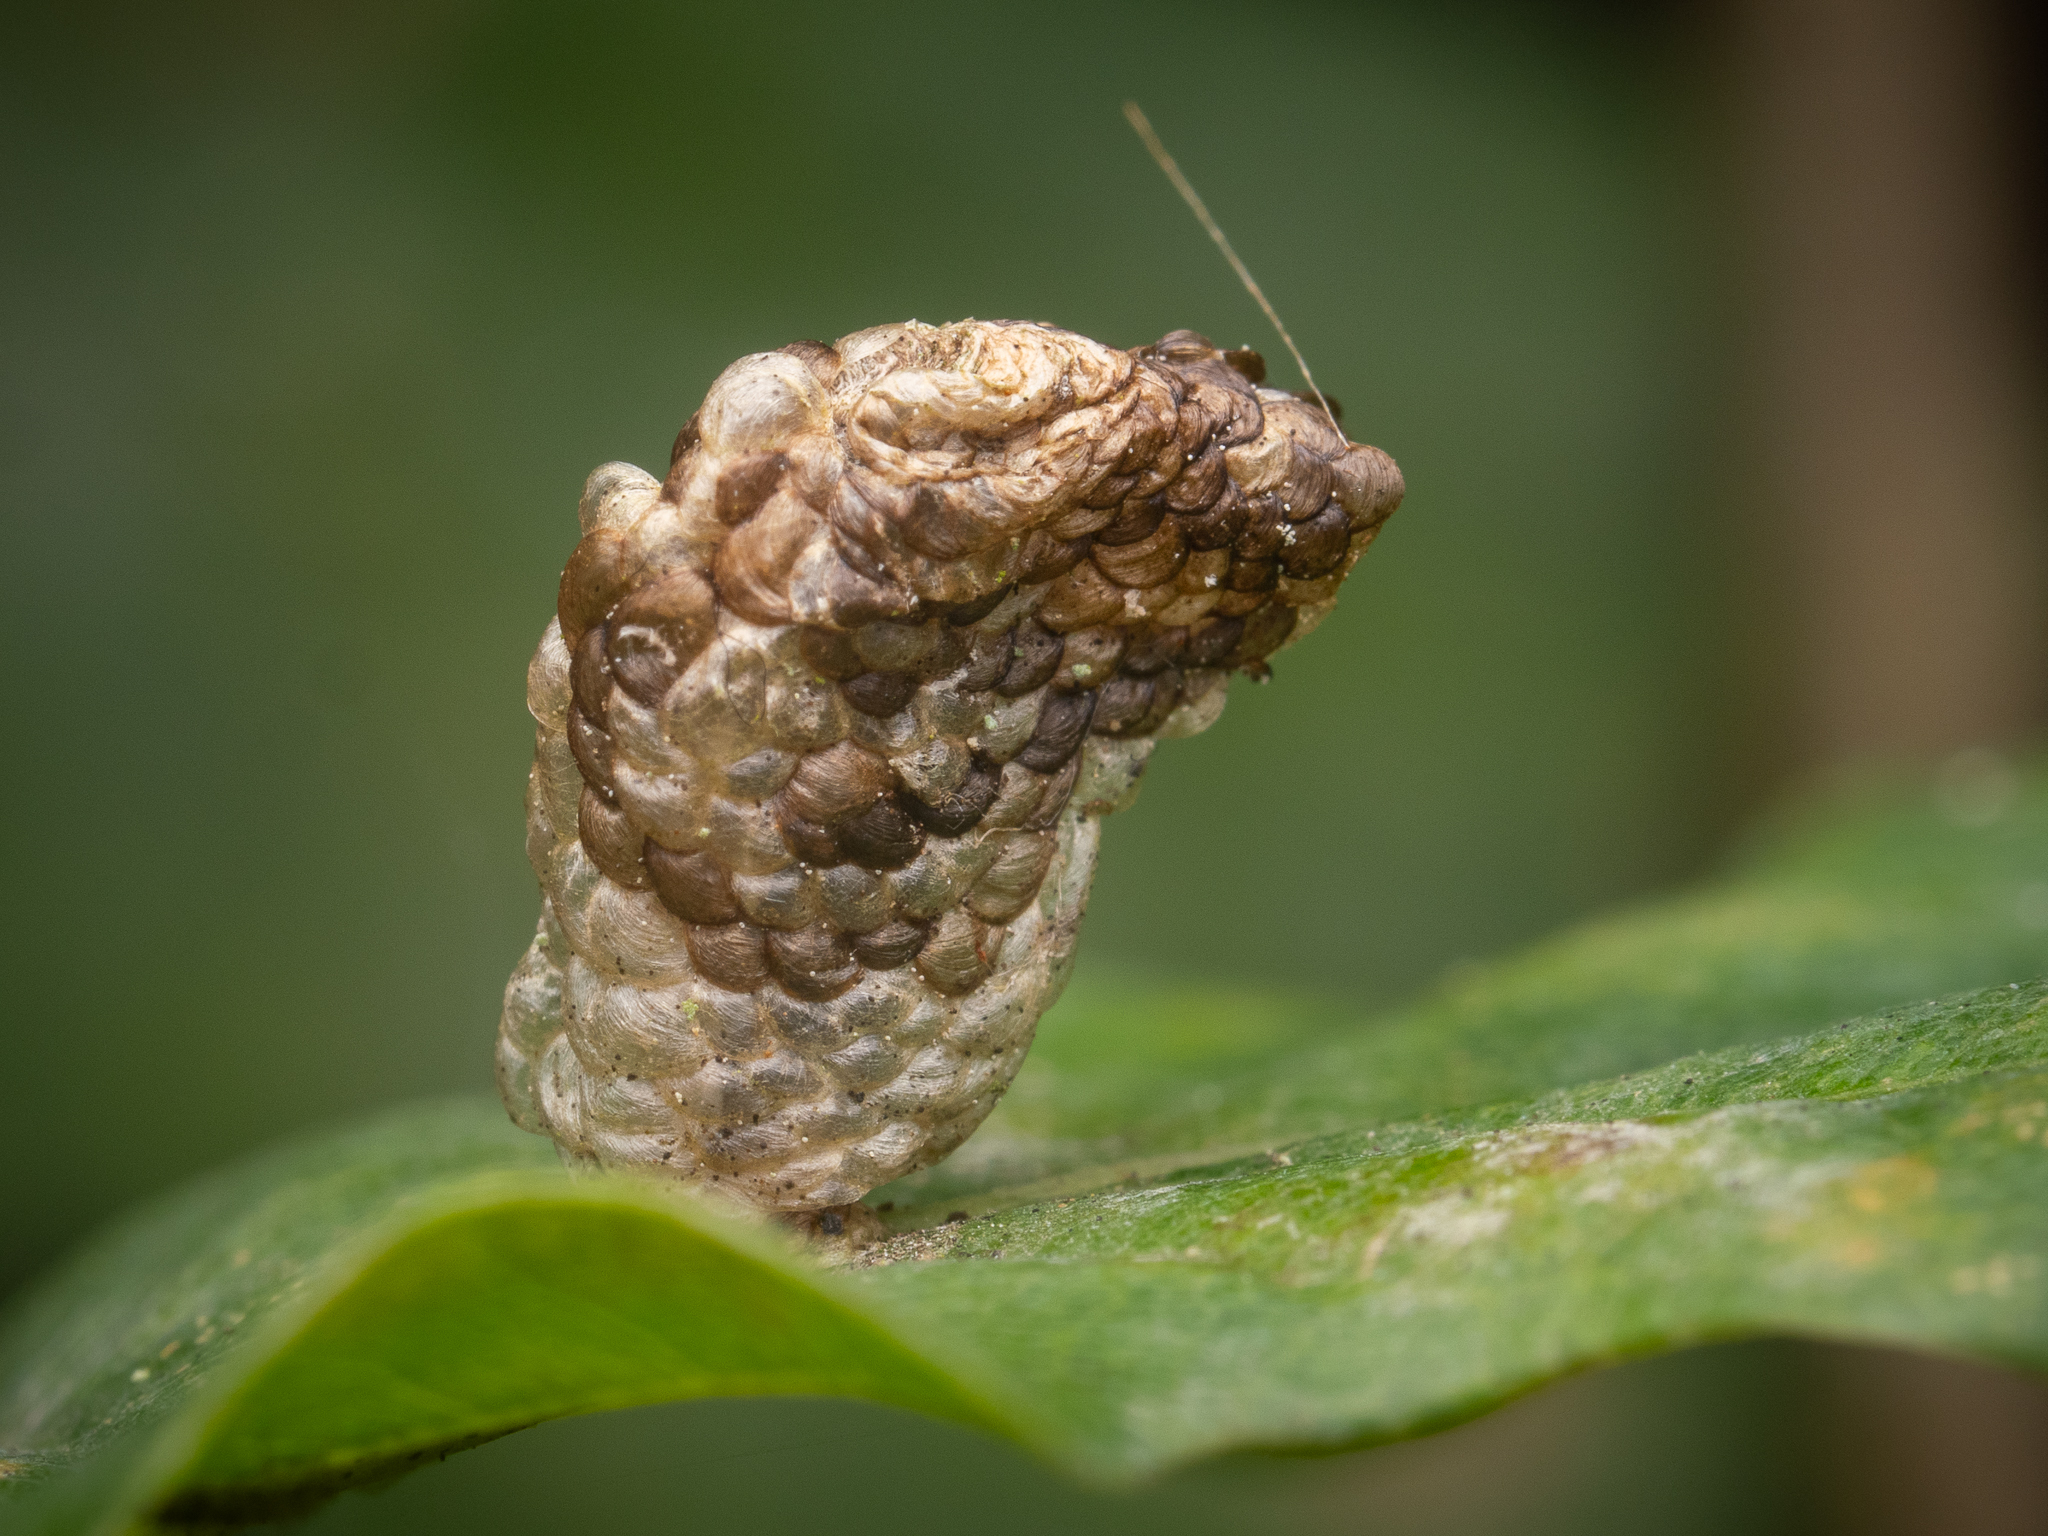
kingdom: Animalia
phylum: Arthropoda
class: Insecta
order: Lepidoptera
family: Coleophoridae
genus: Coleophora
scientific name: Coleophora kuehnella
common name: White oak case-bearer
